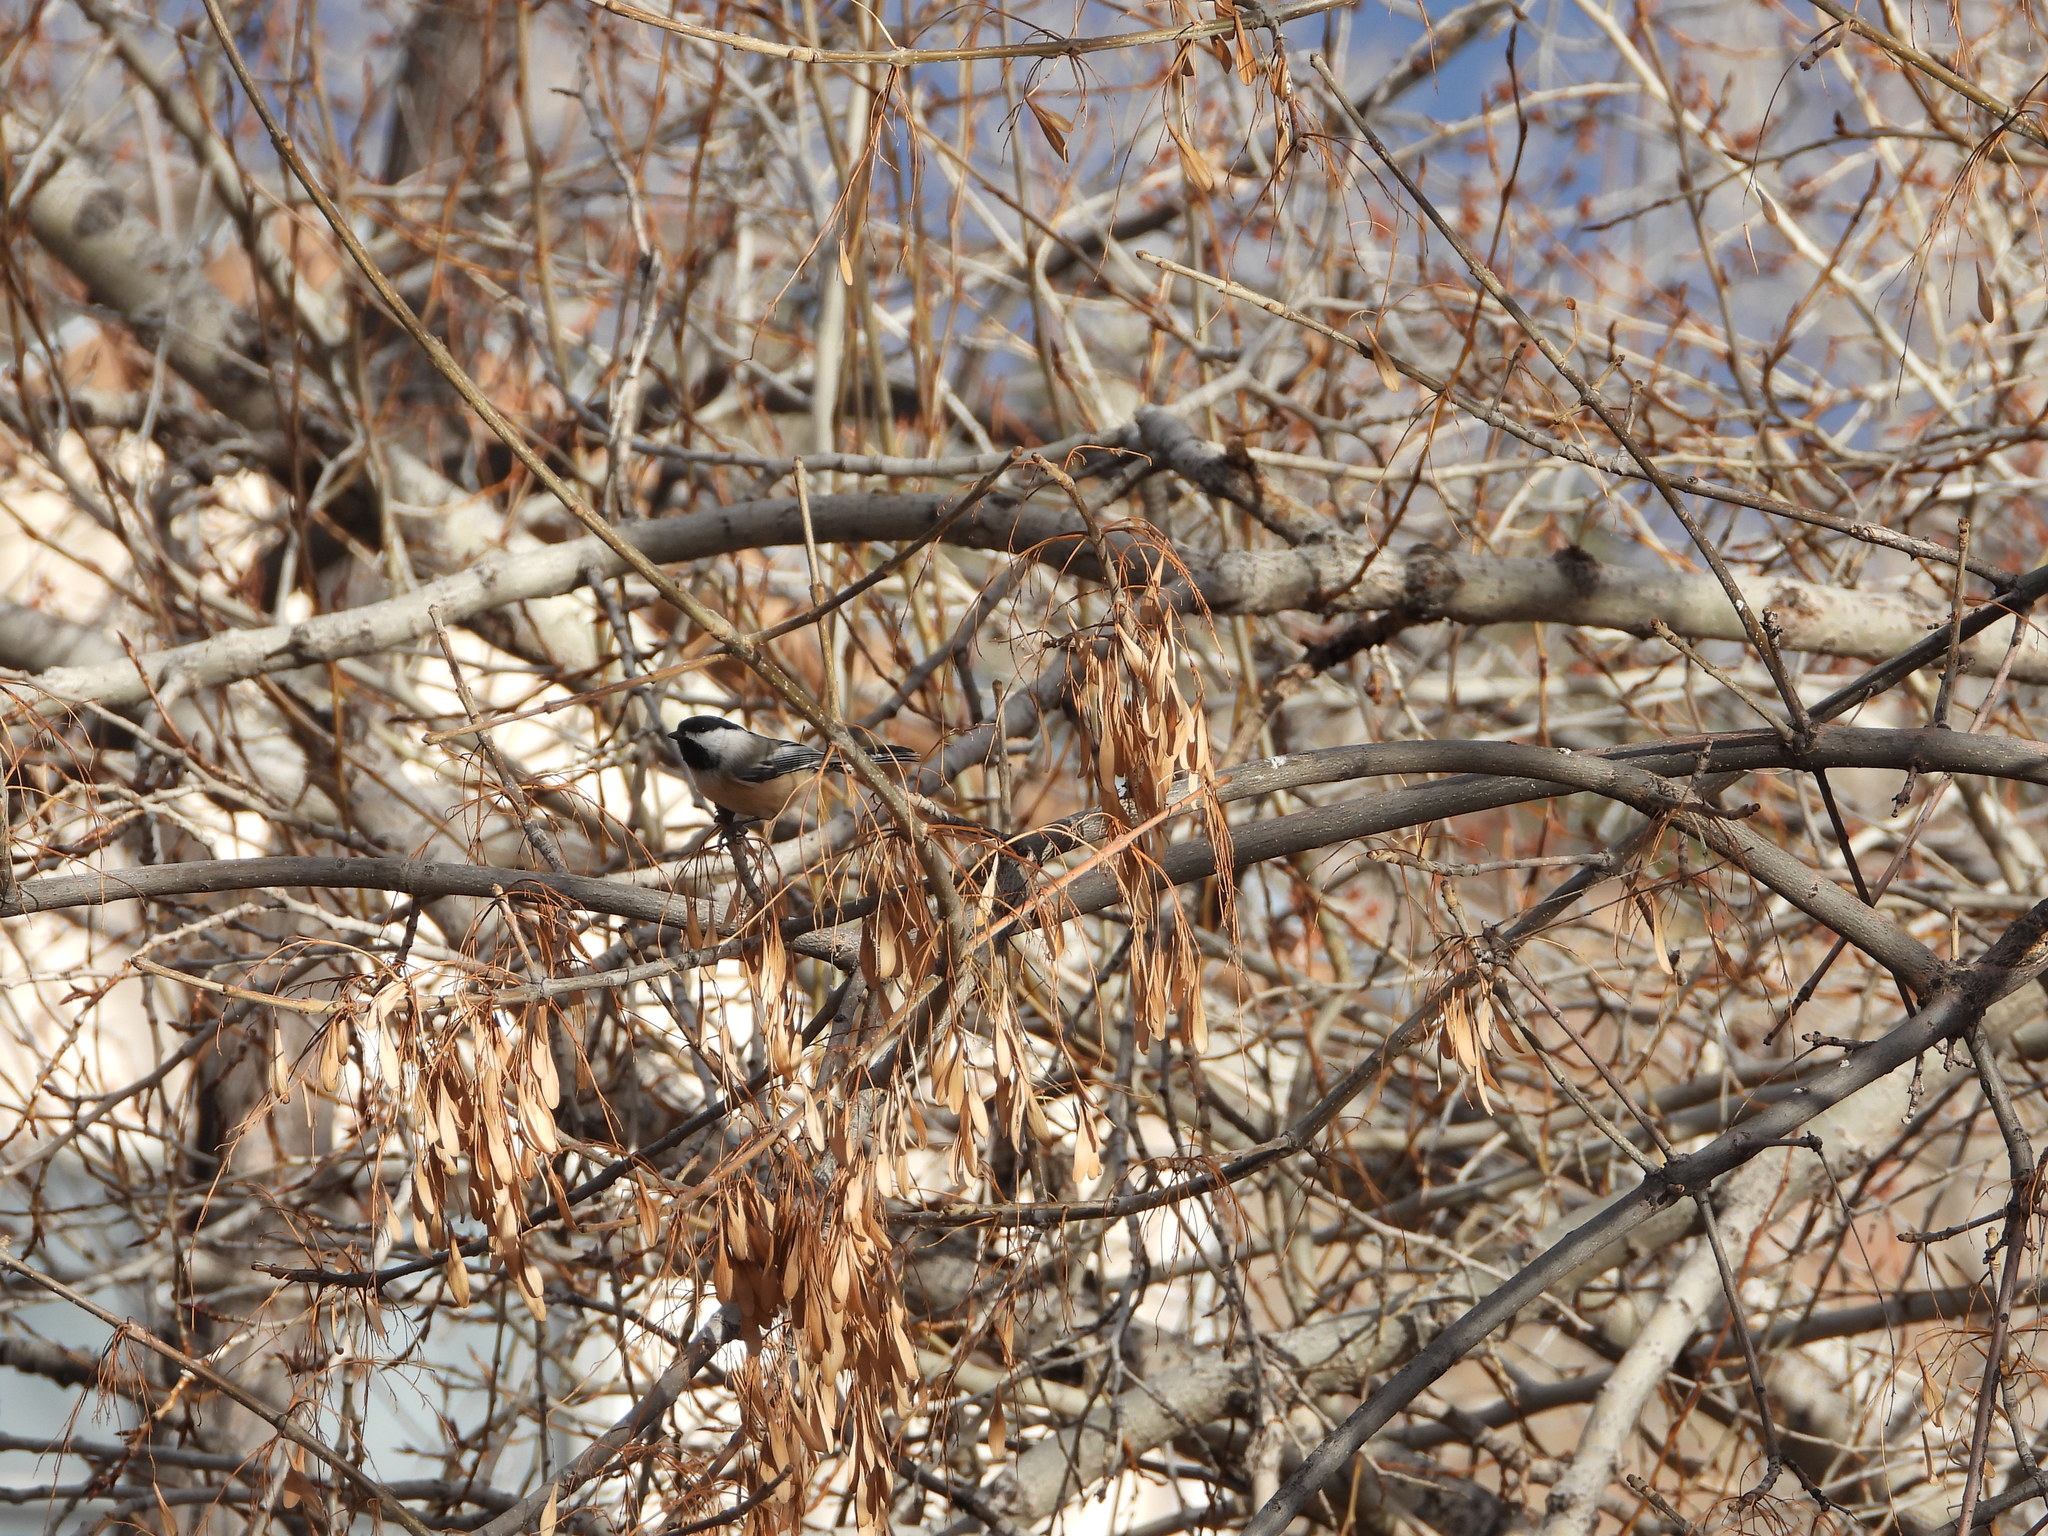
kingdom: Animalia
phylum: Chordata
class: Aves
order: Passeriformes
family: Paridae
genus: Poecile
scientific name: Poecile atricapillus
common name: Black-capped chickadee
